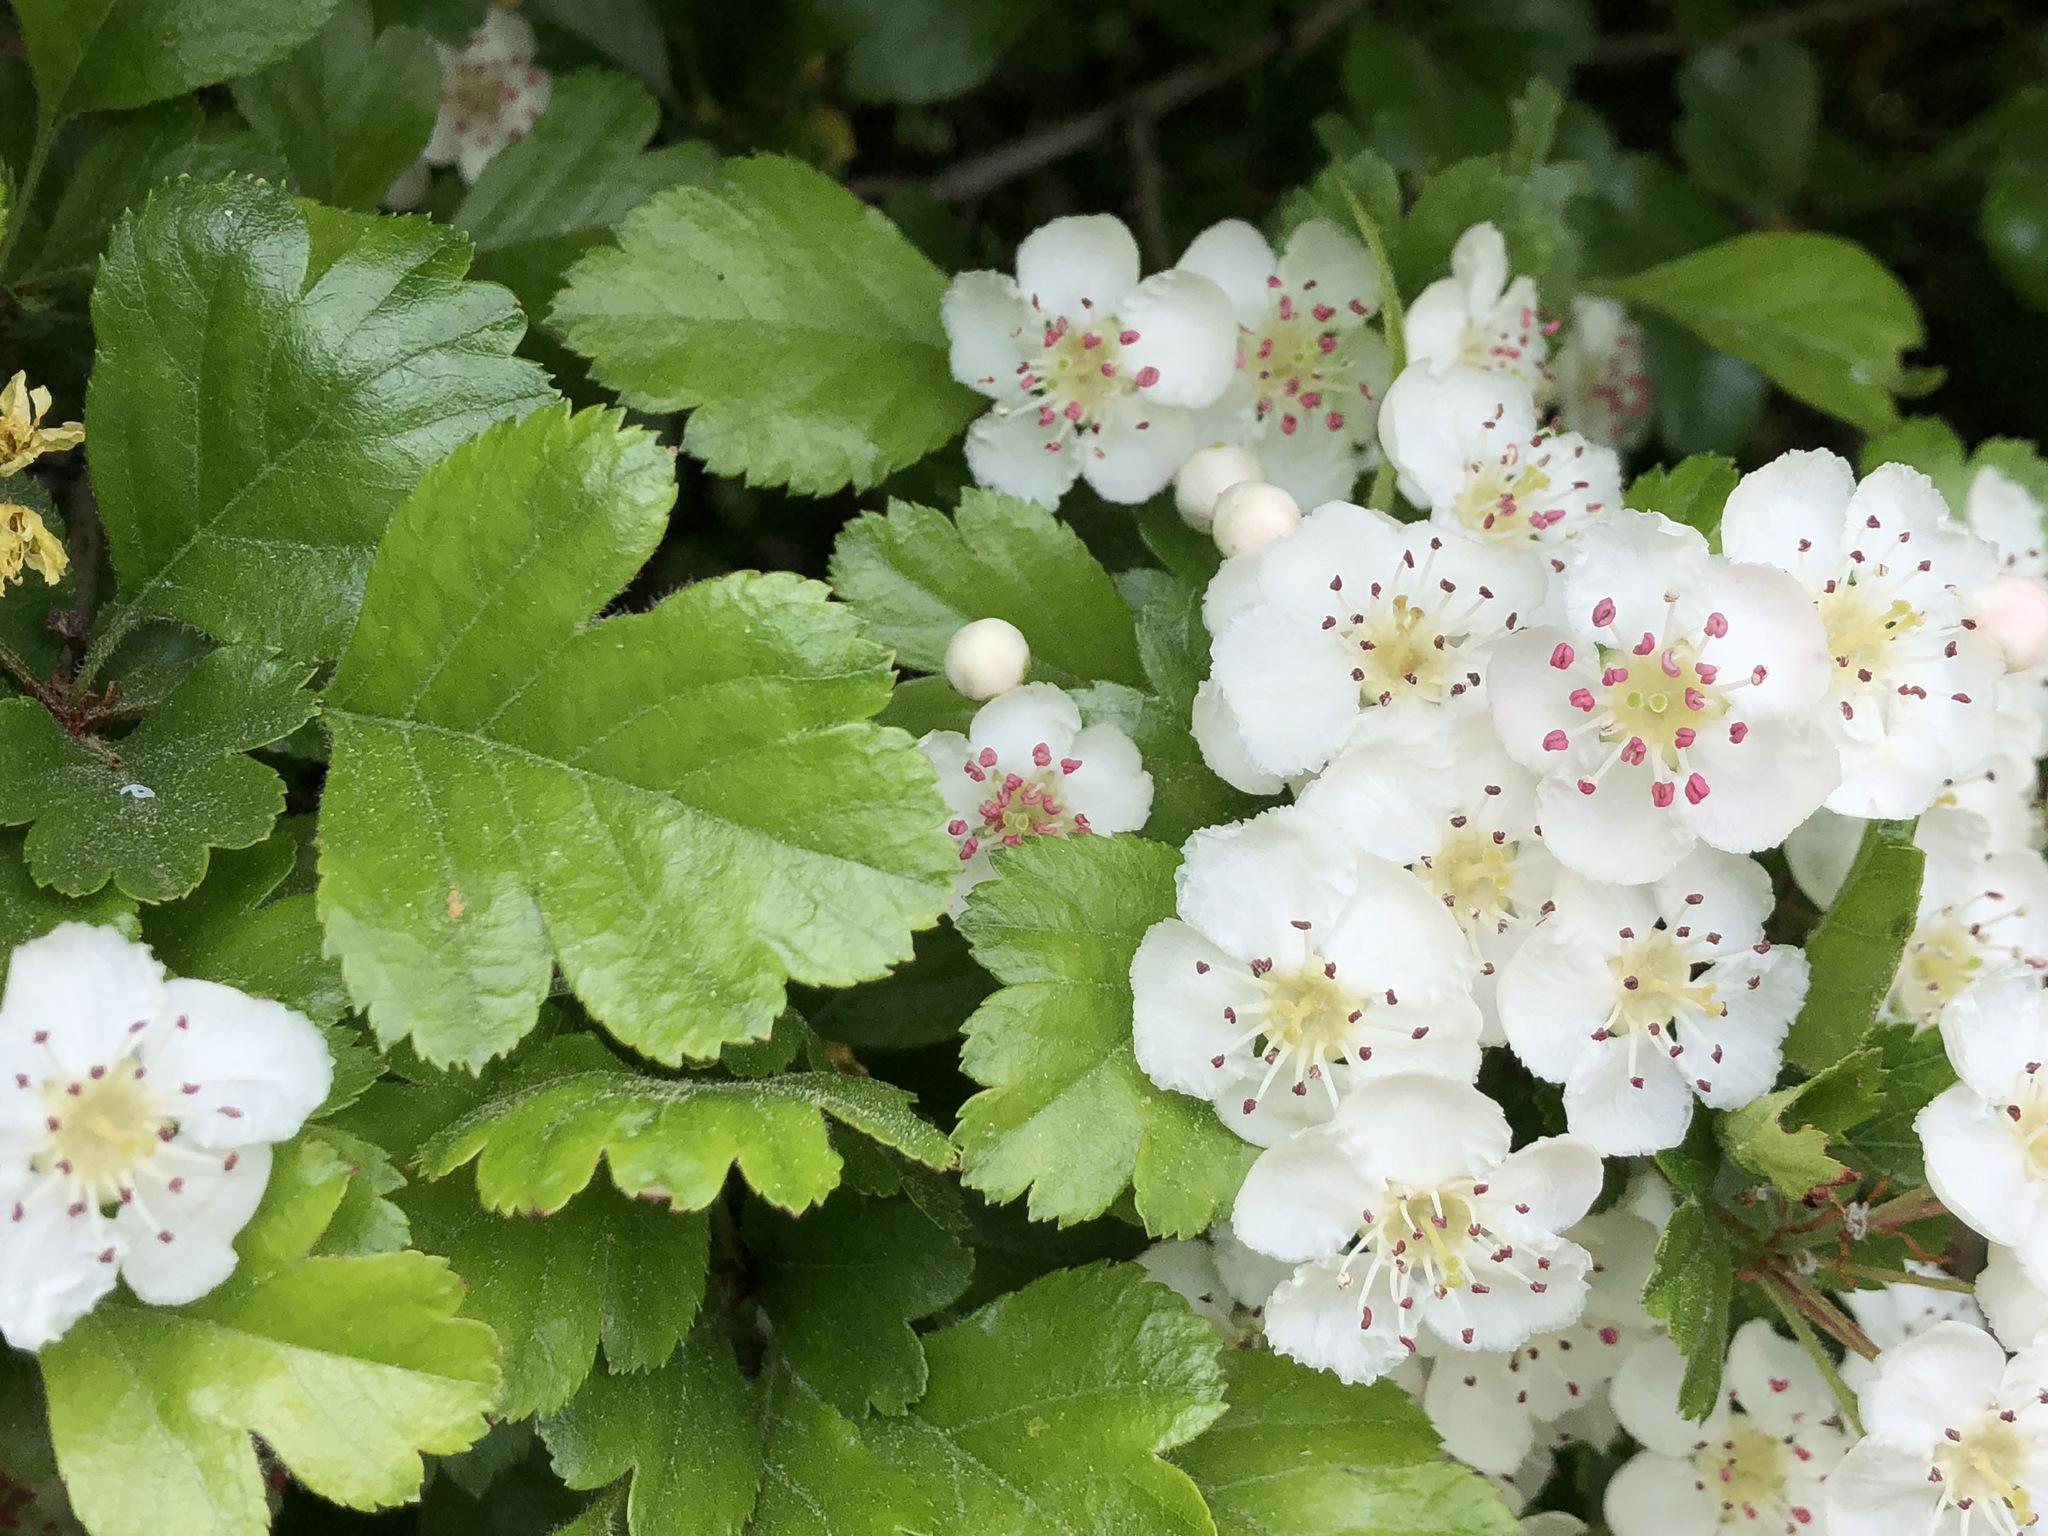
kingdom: Plantae
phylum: Tracheophyta
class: Magnoliopsida
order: Rosales
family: Rosaceae
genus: Crataegus
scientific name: Crataegus laevigata
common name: Midland hawthorn
